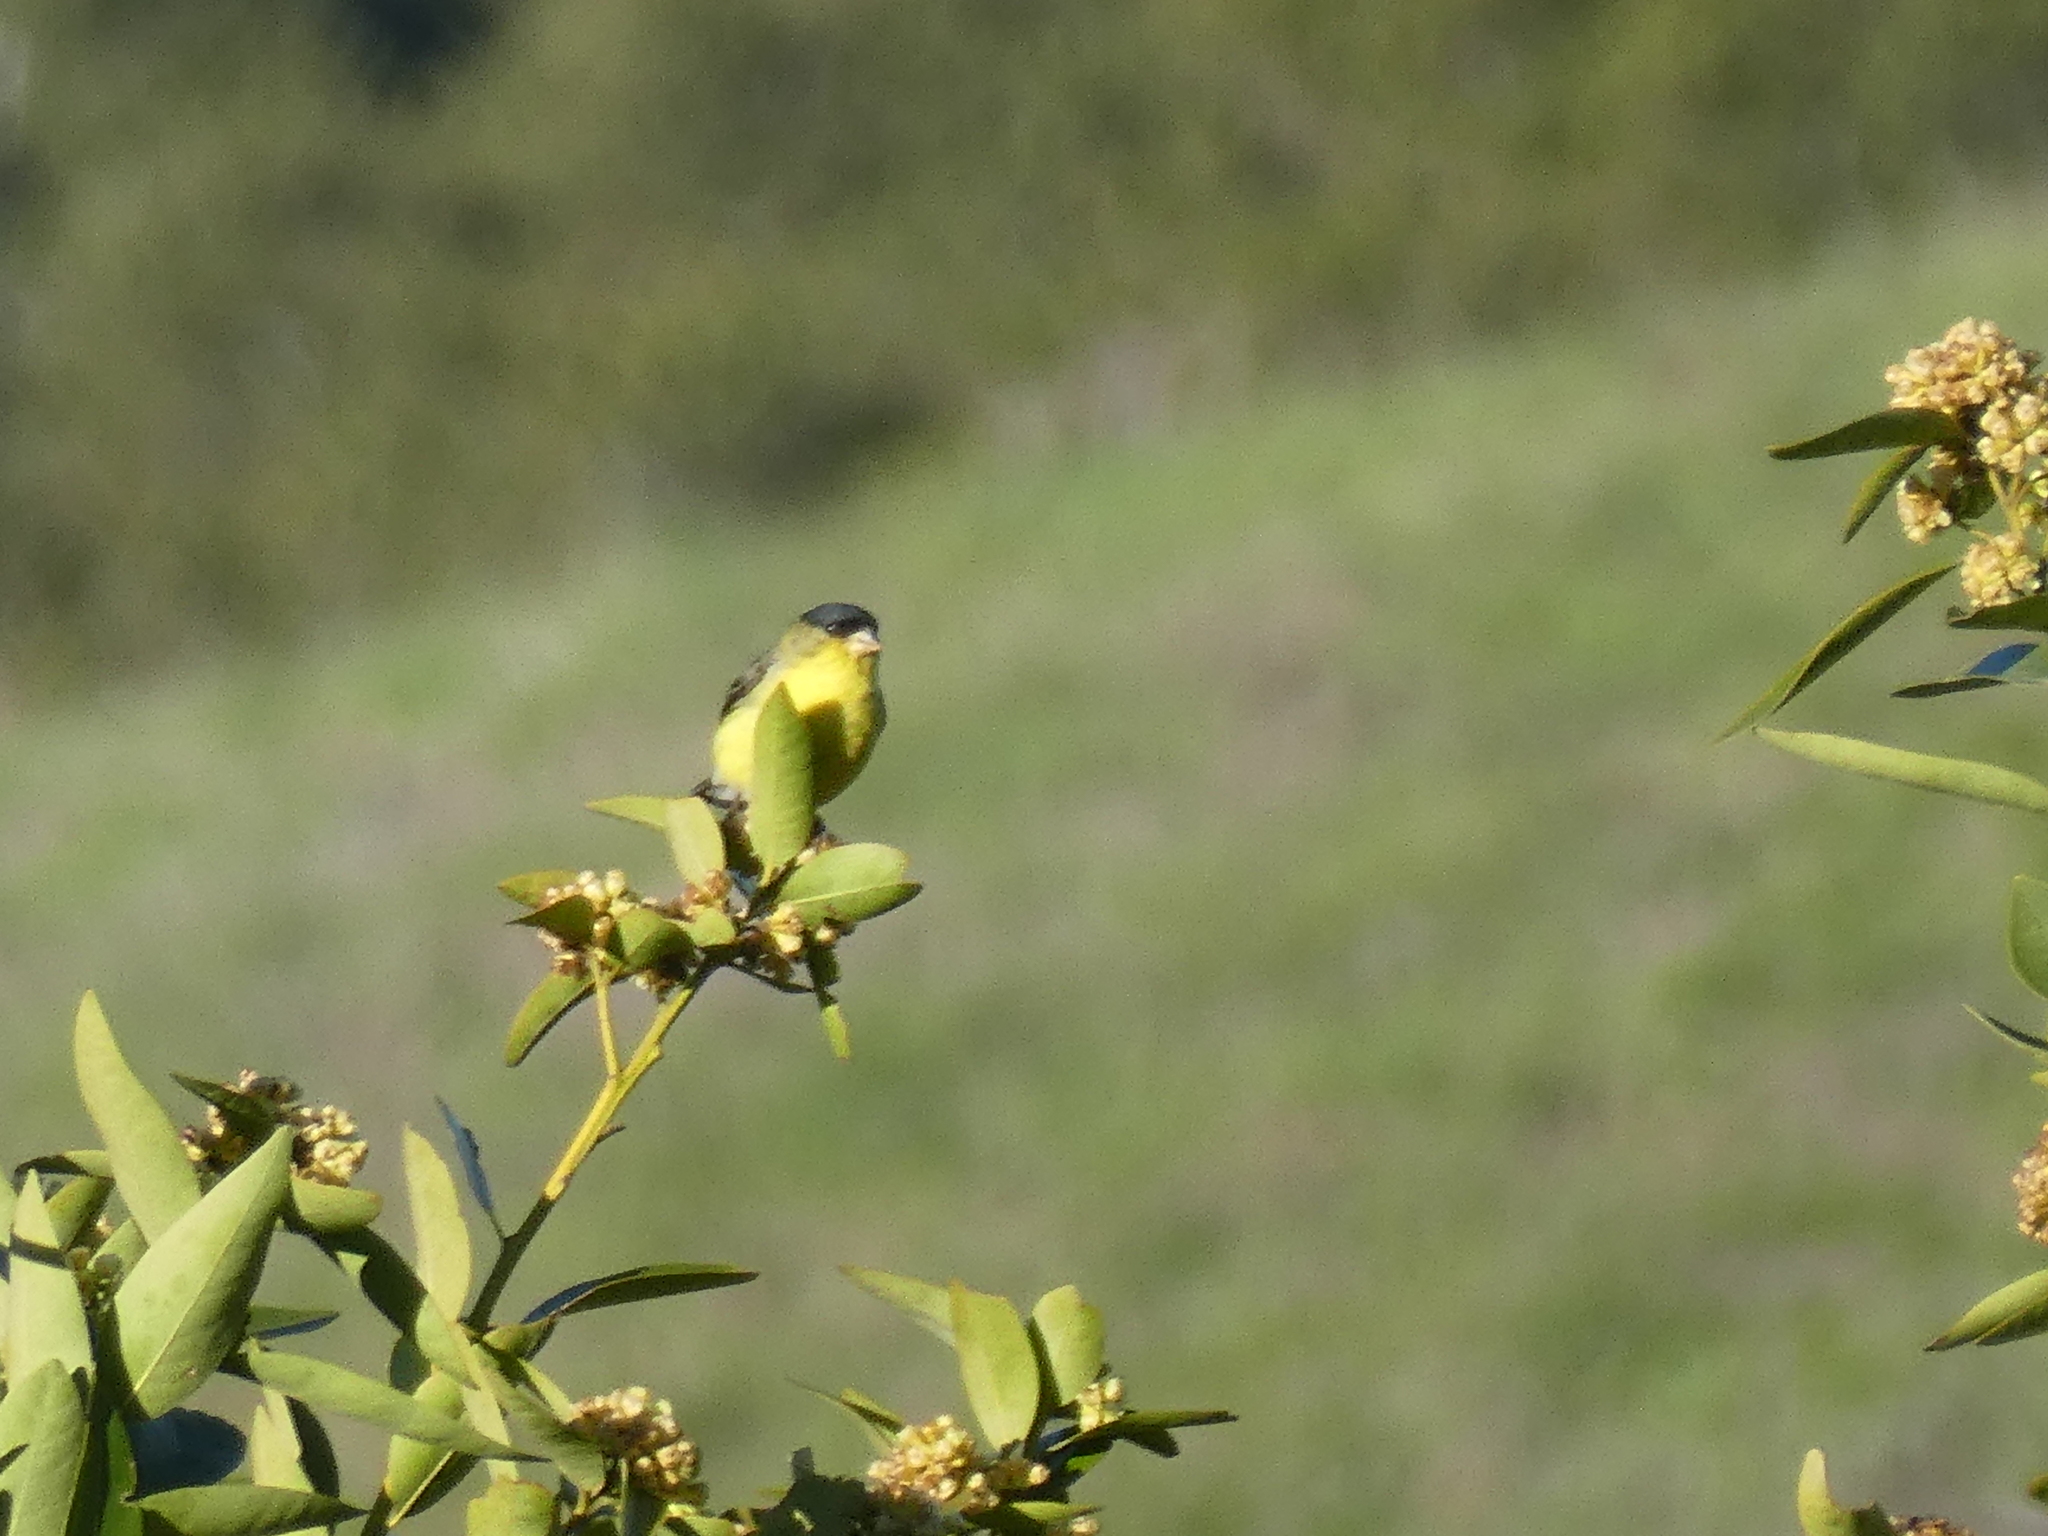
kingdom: Animalia
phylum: Chordata
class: Aves
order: Passeriformes
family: Fringillidae
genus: Spinus
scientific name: Spinus psaltria
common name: Lesser goldfinch
